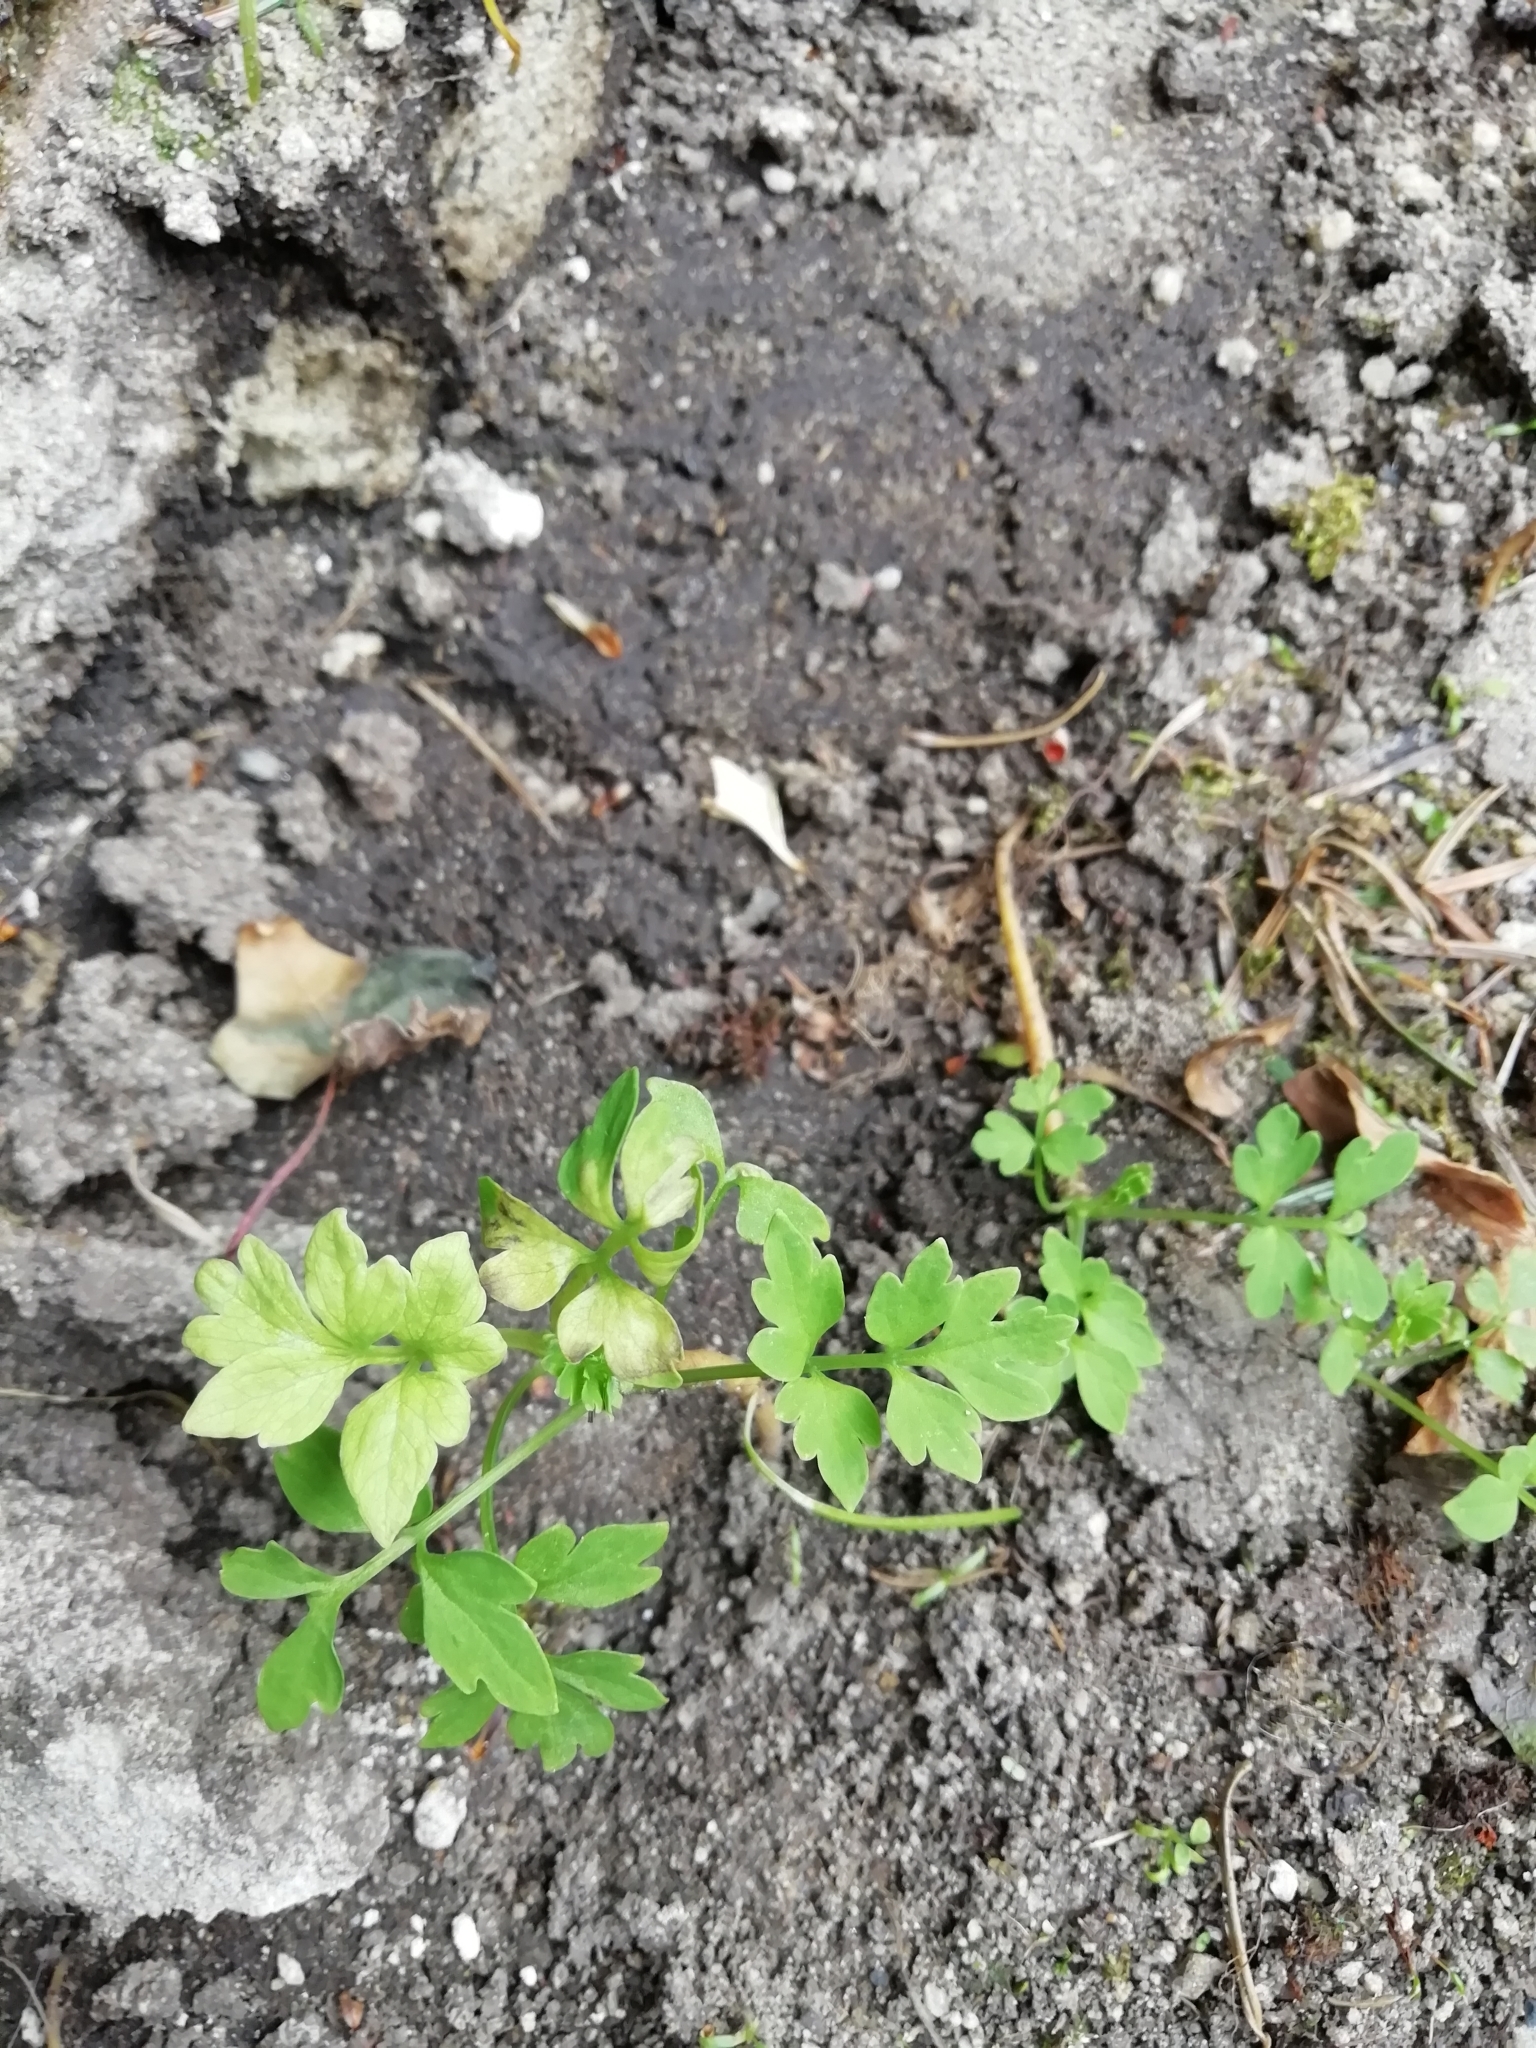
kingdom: Plantae
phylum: Tracheophyta
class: Magnoliopsida
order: Ranunculales
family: Papaveraceae
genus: Papaver
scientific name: Papaver cambricum
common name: Poppy
